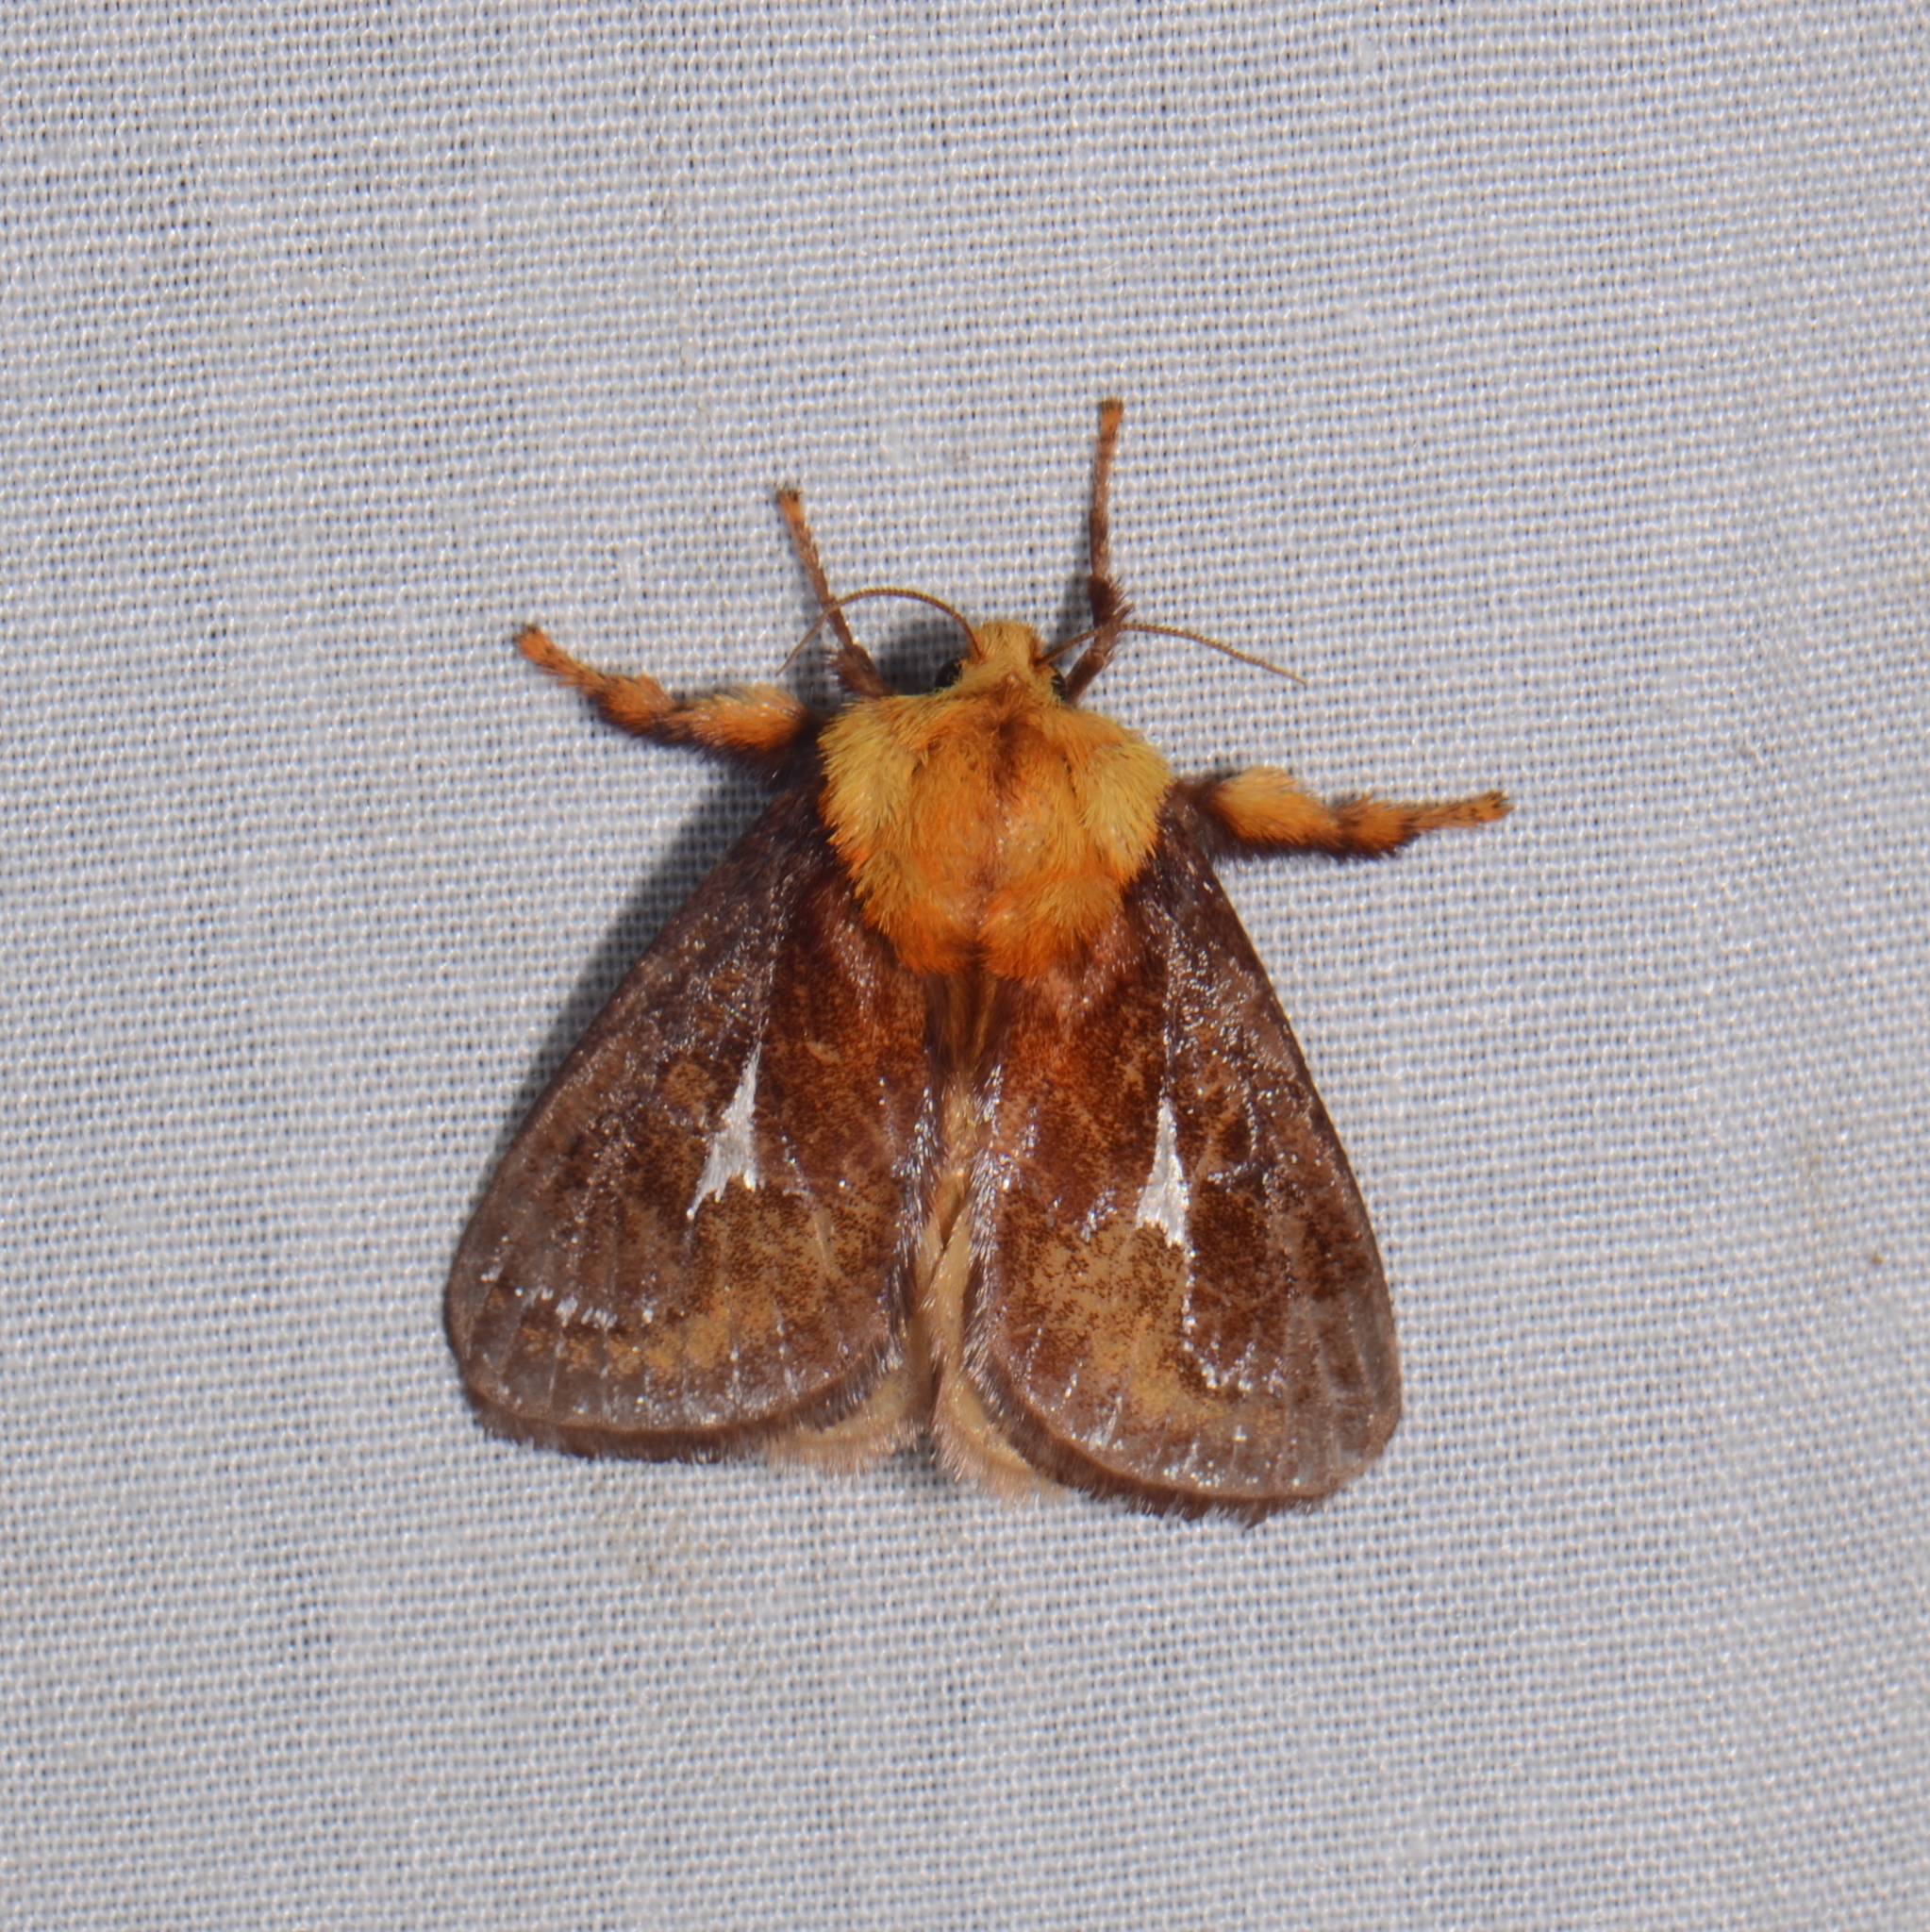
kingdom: Animalia
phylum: Arthropoda
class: Insecta
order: Lepidoptera
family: Limacodidae
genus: Miresa
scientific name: Miresa bracteata
